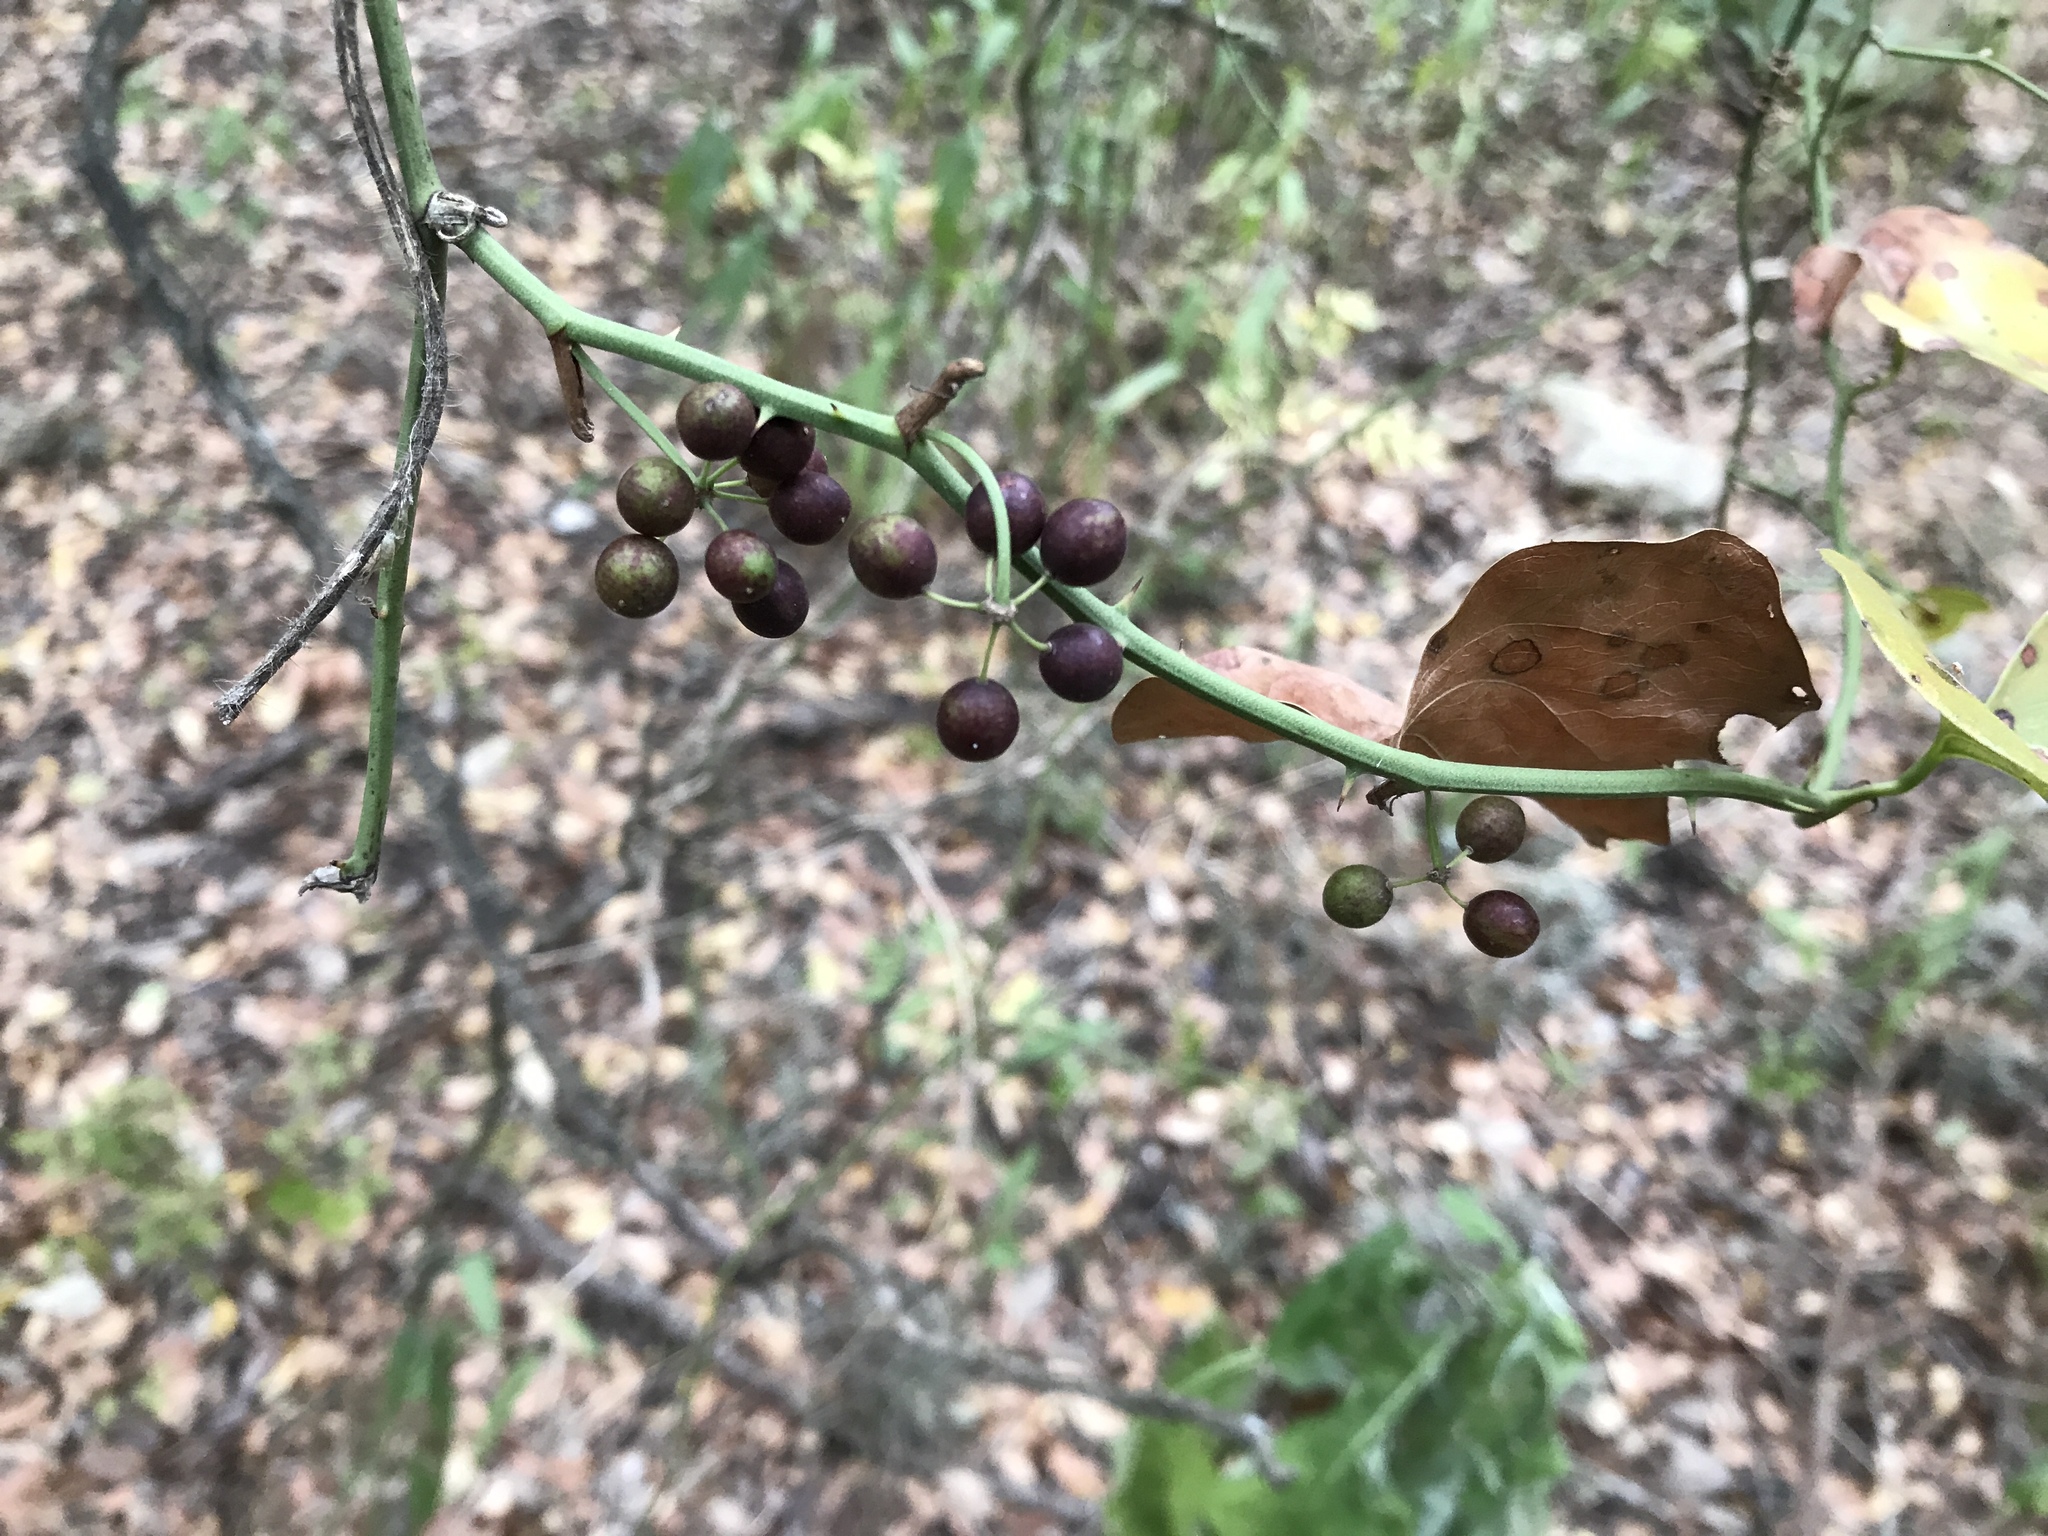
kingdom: Plantae
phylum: Tracheophyta
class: Liliopsida
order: Liliales
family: Smilacaceae
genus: Smilax
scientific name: Smilax bona-nox
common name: Catbrier
